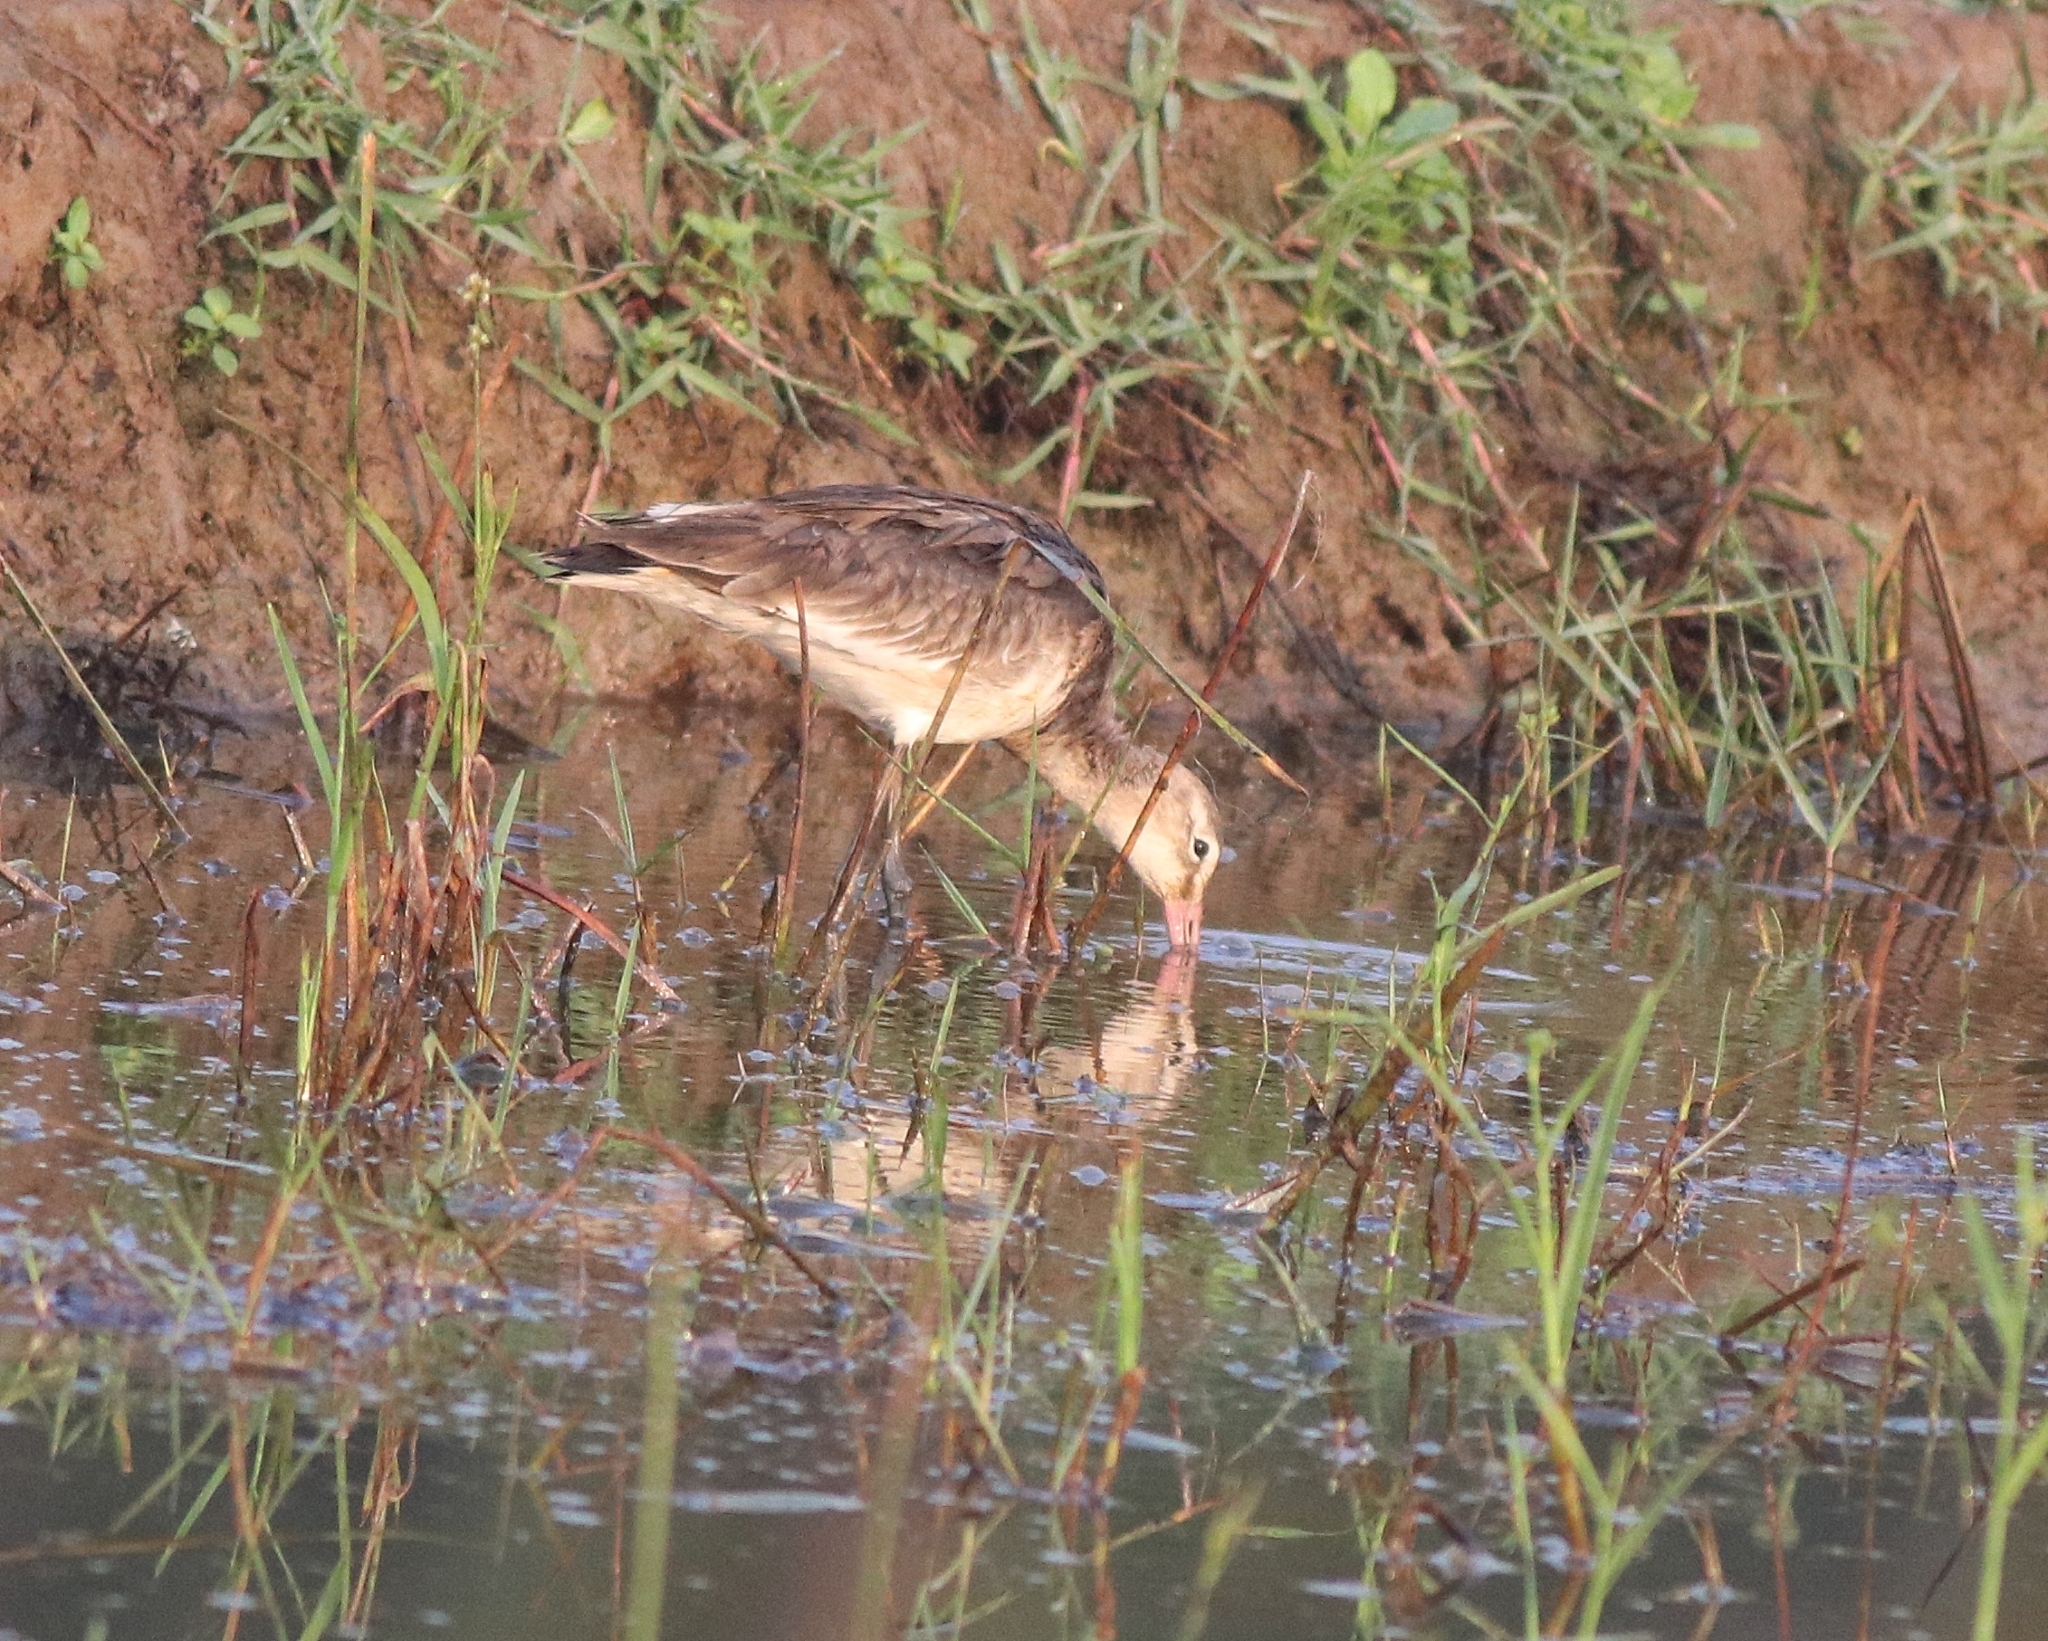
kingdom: Animalia
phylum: Chordata
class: Aves
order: Charadriiformes
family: Scolopacidae
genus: Limosa
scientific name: Limosa limosa
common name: Black-tailed godwit
